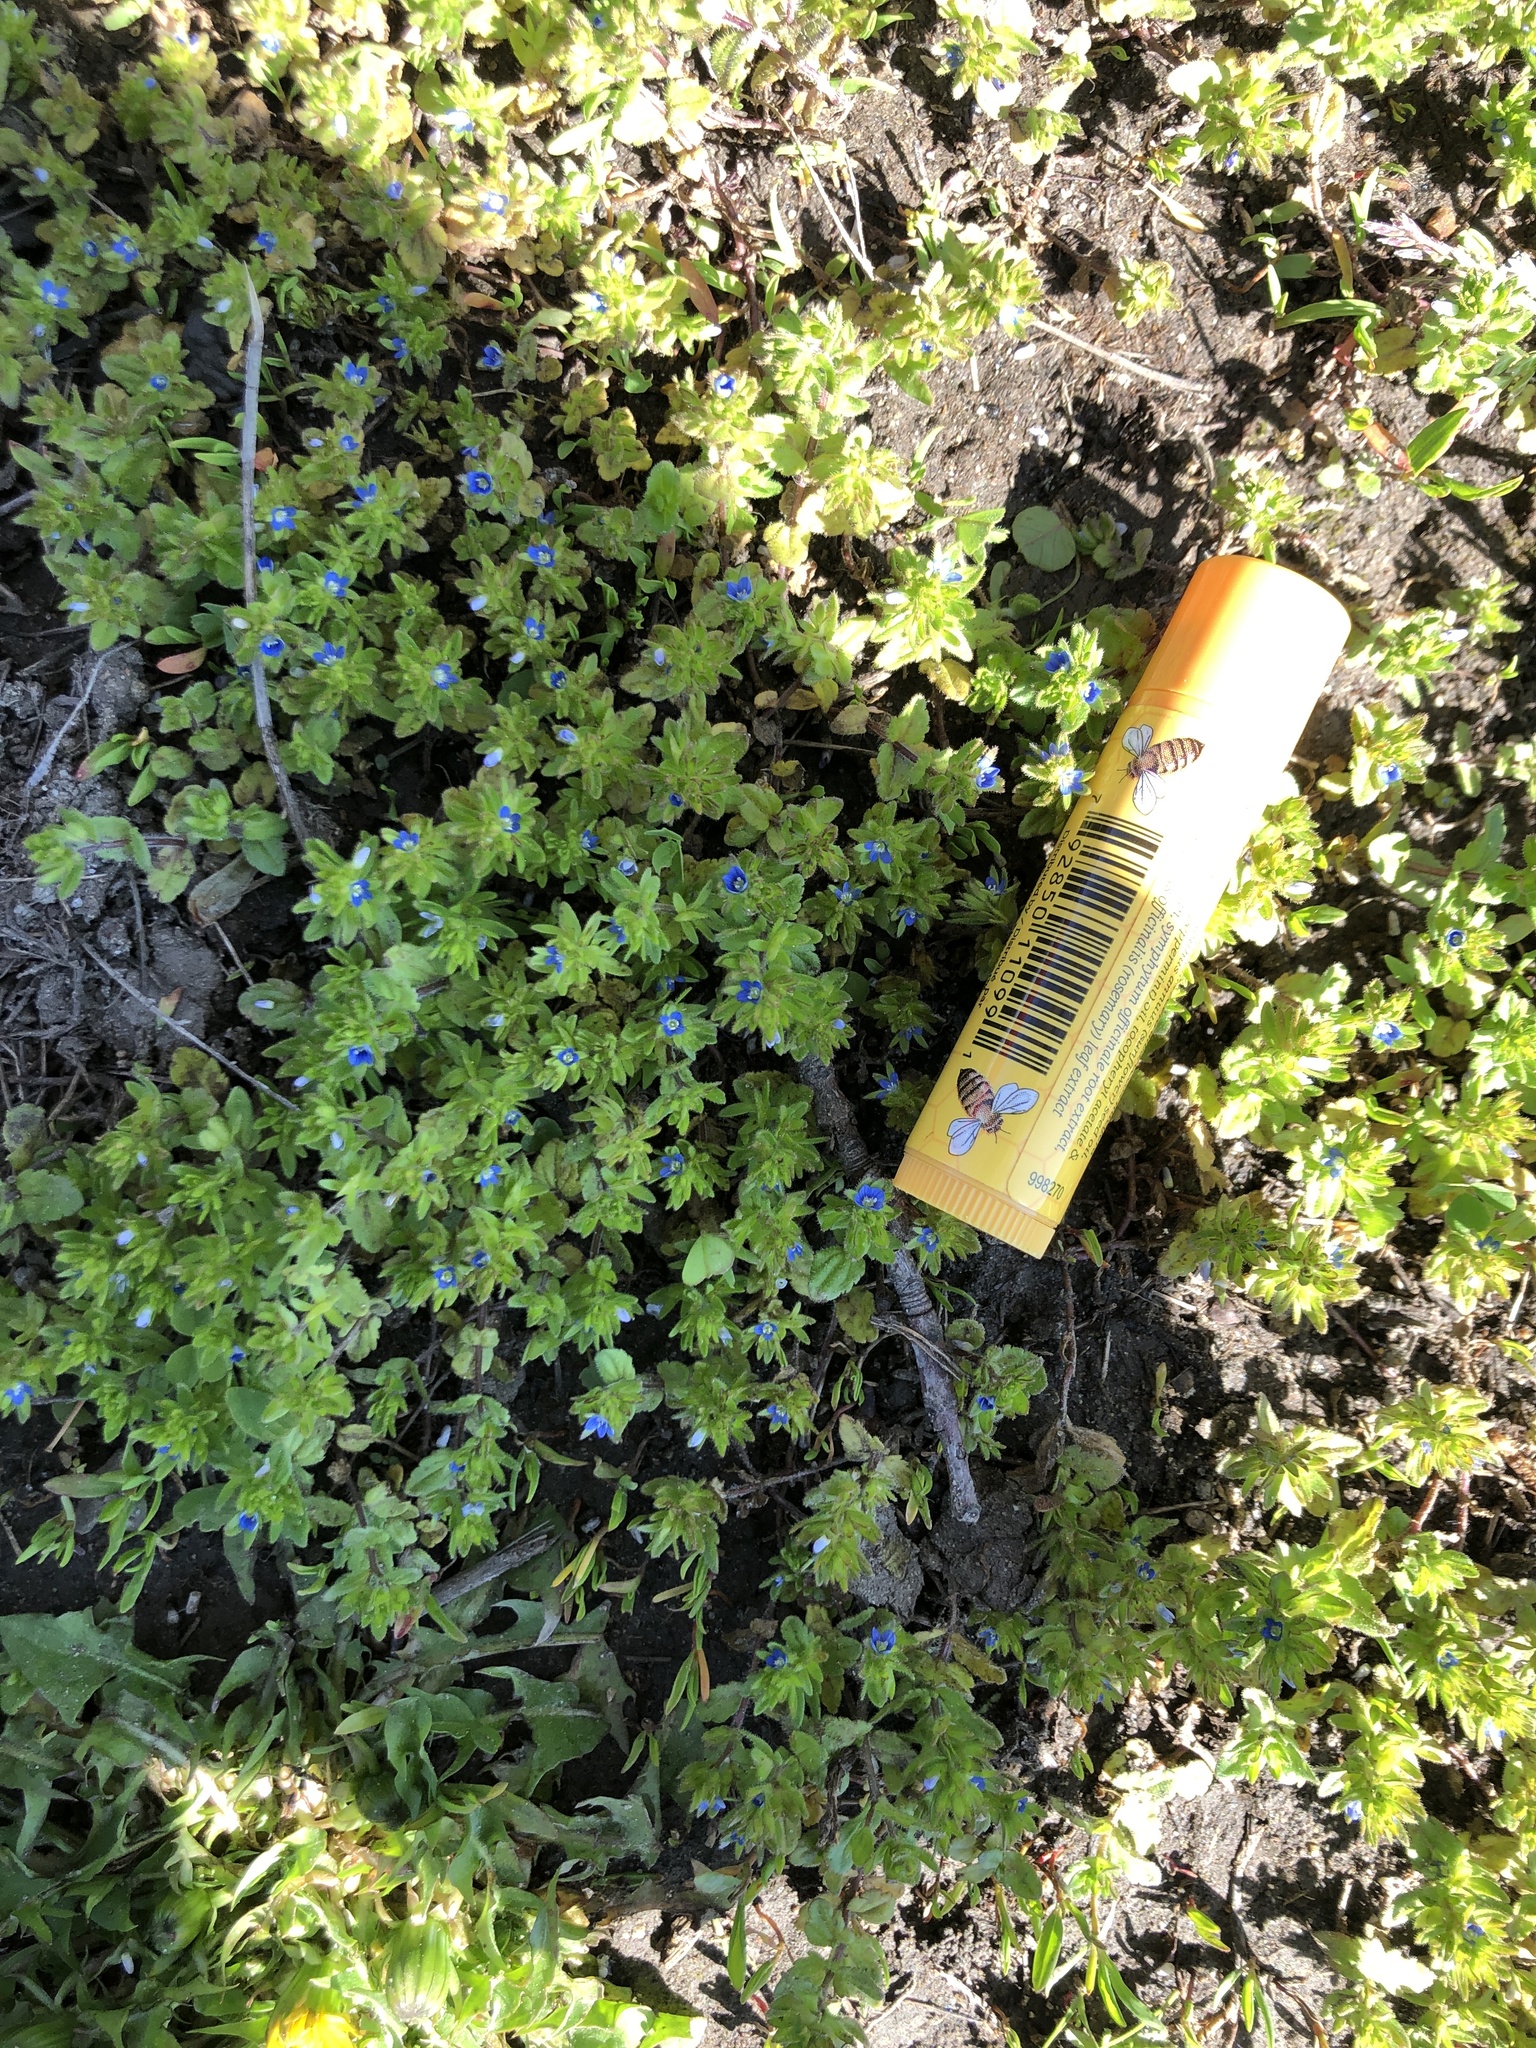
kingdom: Plantae
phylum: Tracheophyta
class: Magnoliopsida
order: Lamiales
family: Plantaginaceae
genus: Veronica
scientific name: Veronica arvensis
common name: Corn speedwell
